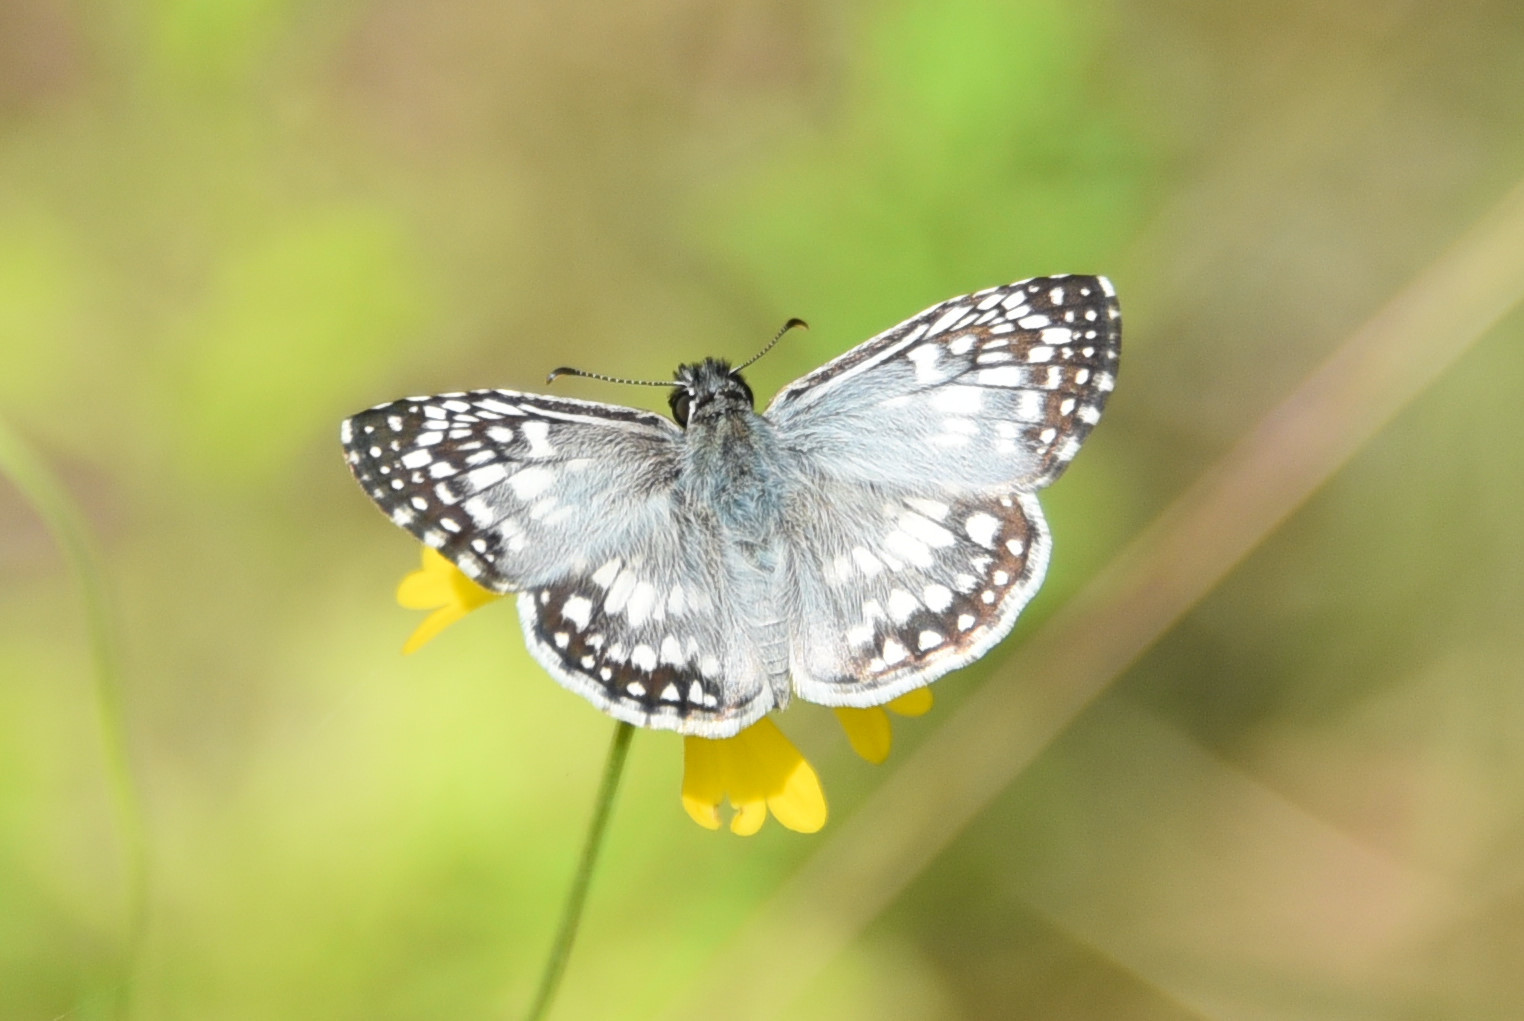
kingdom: Animalia
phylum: Arthropoda
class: Insecta
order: Lepidoptera
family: Hesperiidae
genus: Pyrgus
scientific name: Pyrgus oileus
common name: Tropical checkered-skipper
